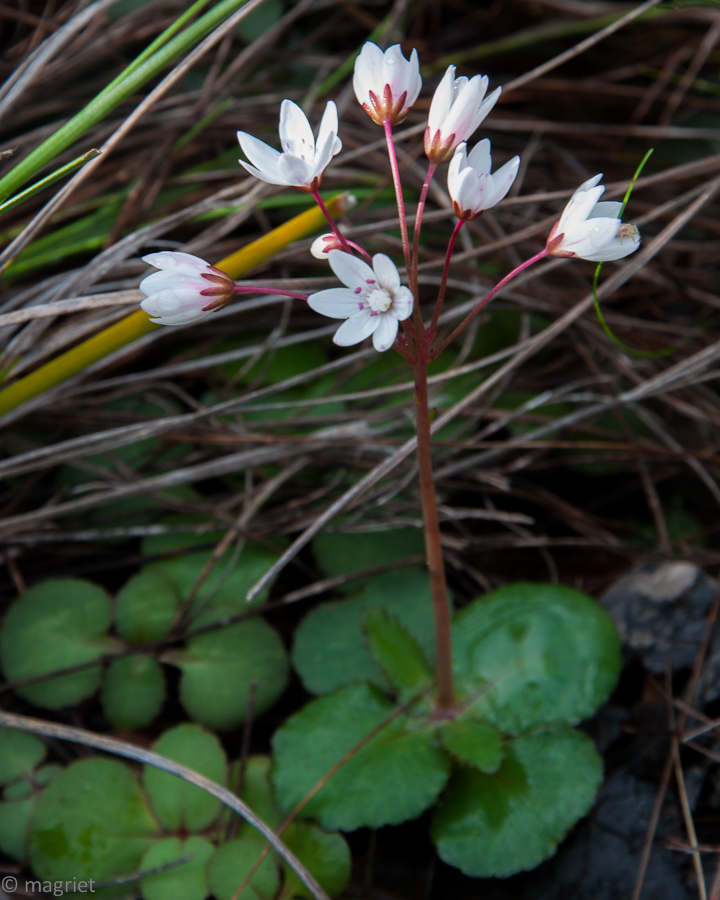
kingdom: Plantae
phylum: Tracheophyta
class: Magnoliopsida
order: Saxifragales
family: Crassulaceae
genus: Crassula
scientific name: Crassula capensis
